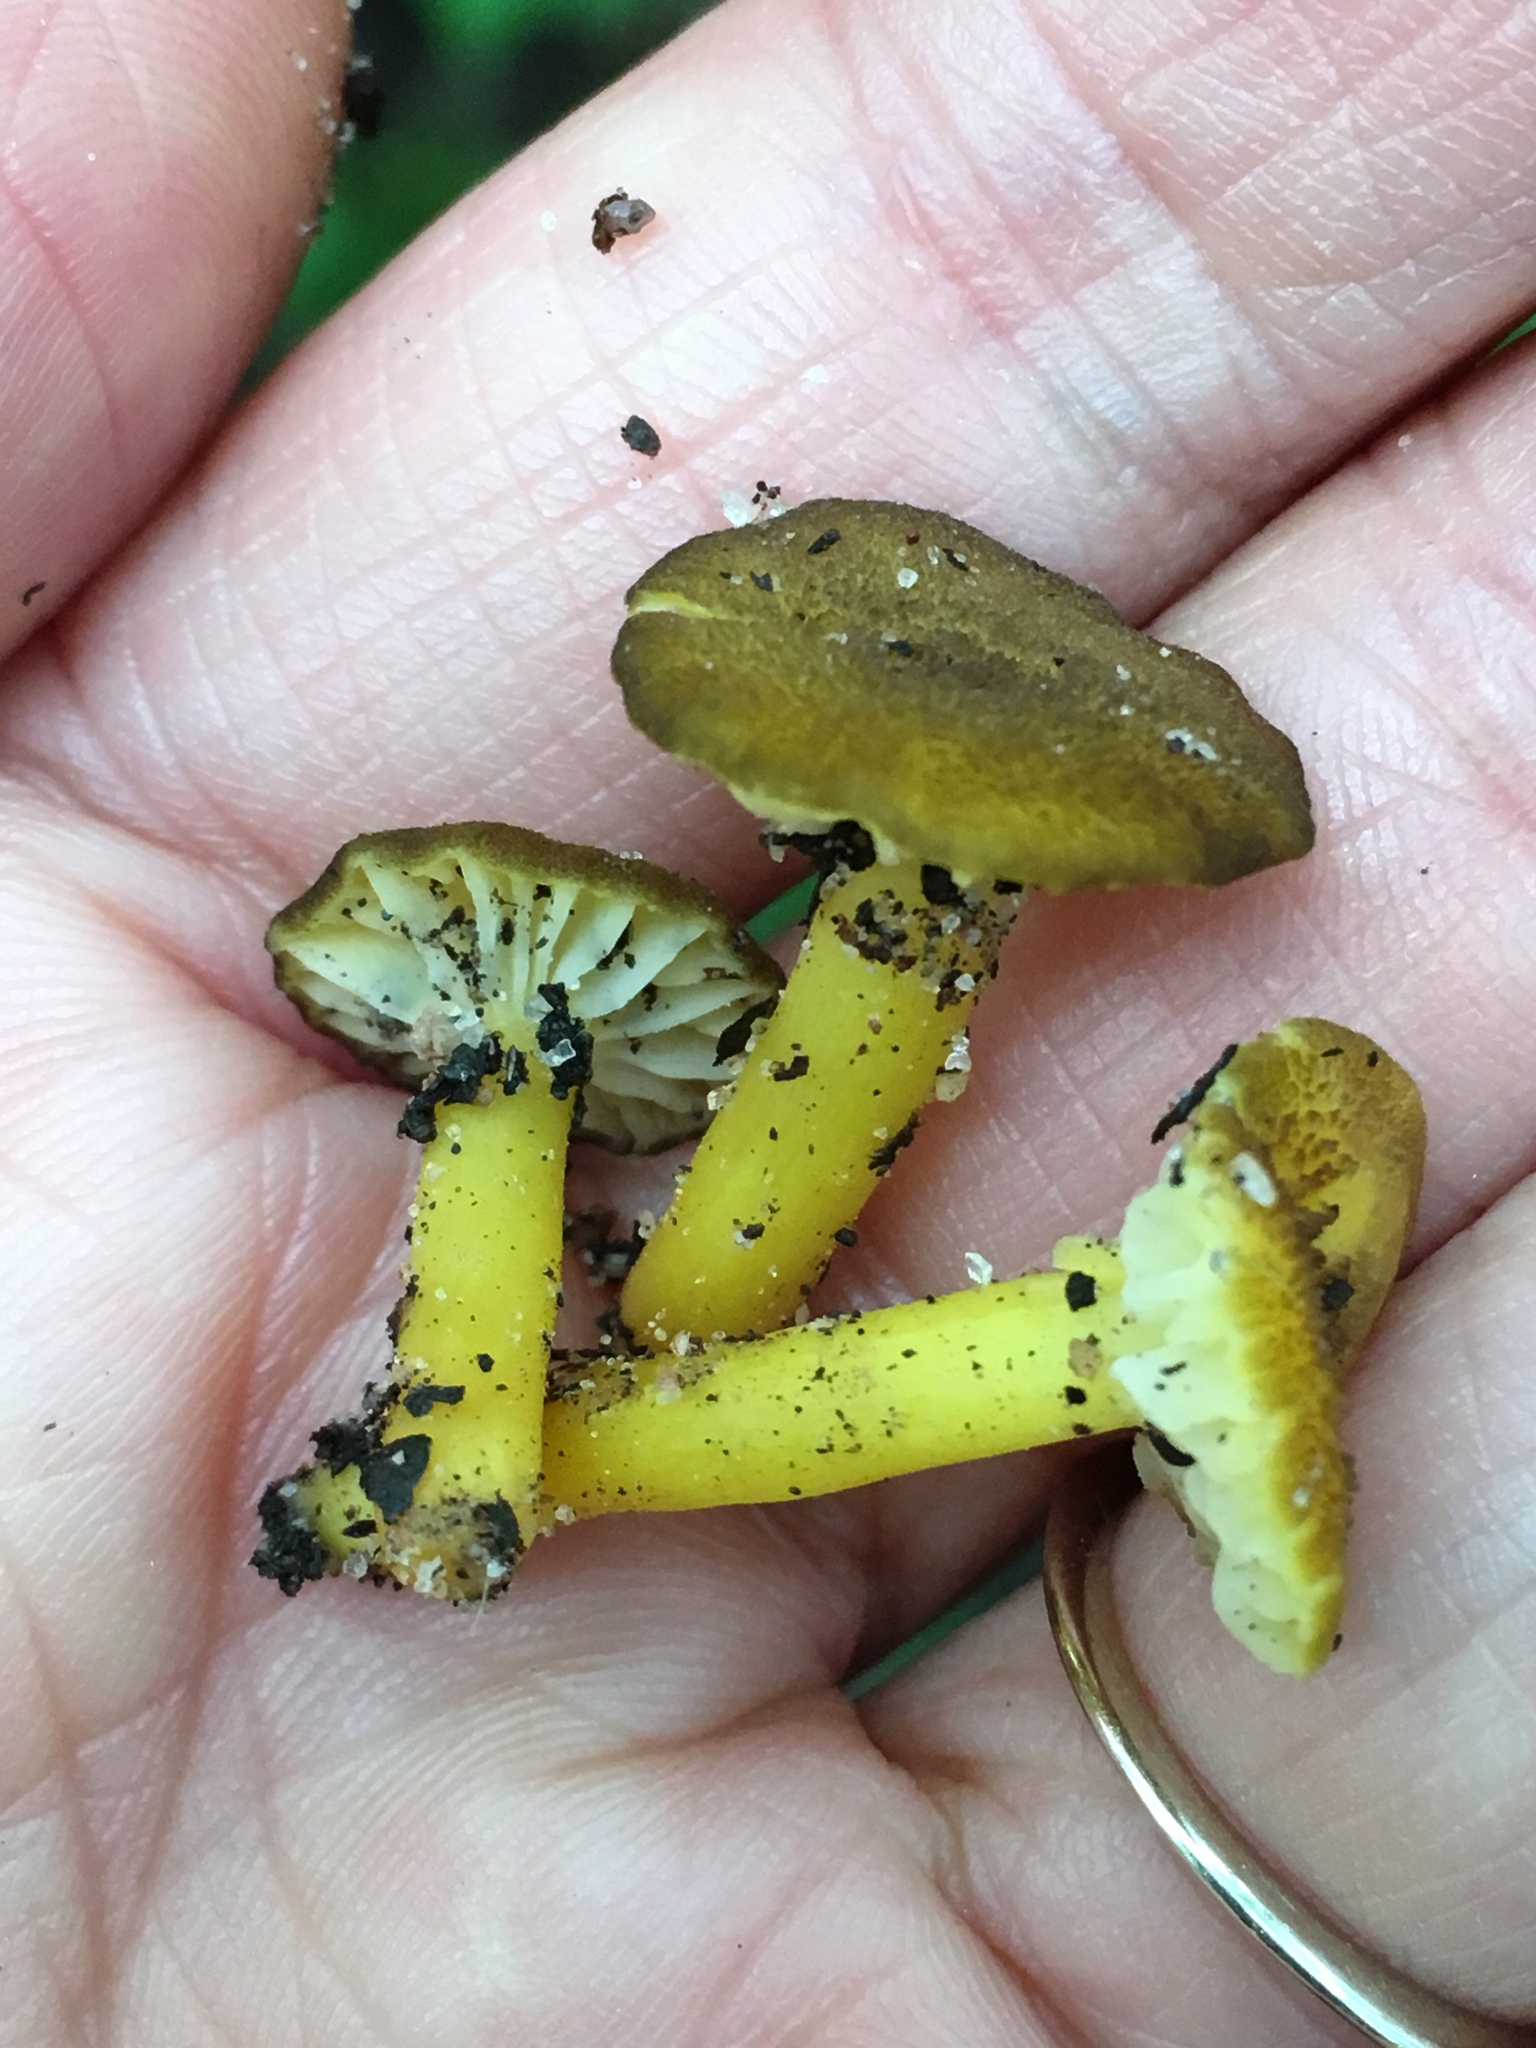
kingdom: Fungi
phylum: Basidiomycota
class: Agaricomycetes
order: Agaricales
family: Hygrophoraceae
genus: Hygrocybe
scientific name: Hygrocybe caespitosa
